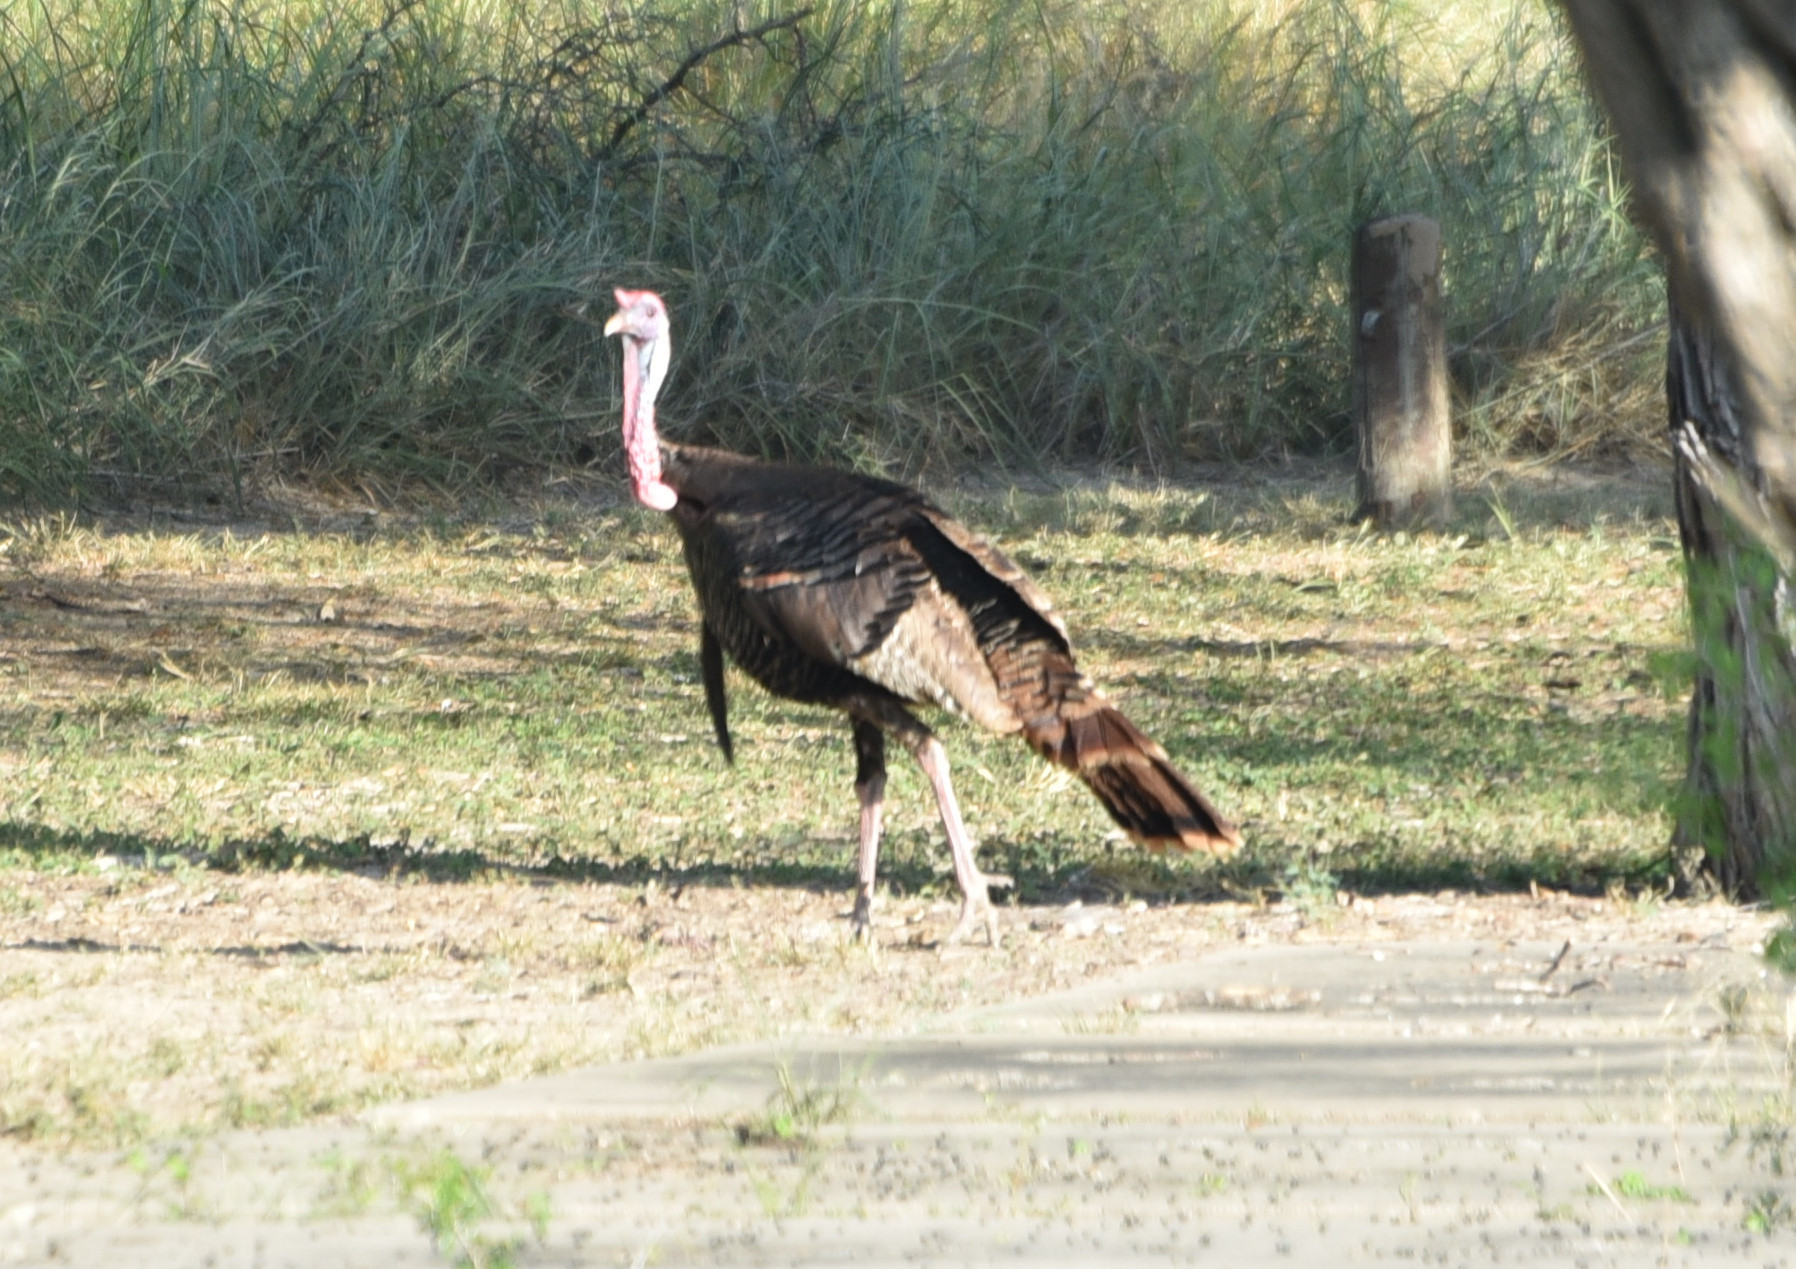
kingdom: Animalia
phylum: Chordata
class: Aves
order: Galliformes
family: Phasianidae
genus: Meleagris
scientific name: Meleagris gallopavo
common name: Wild turkey
